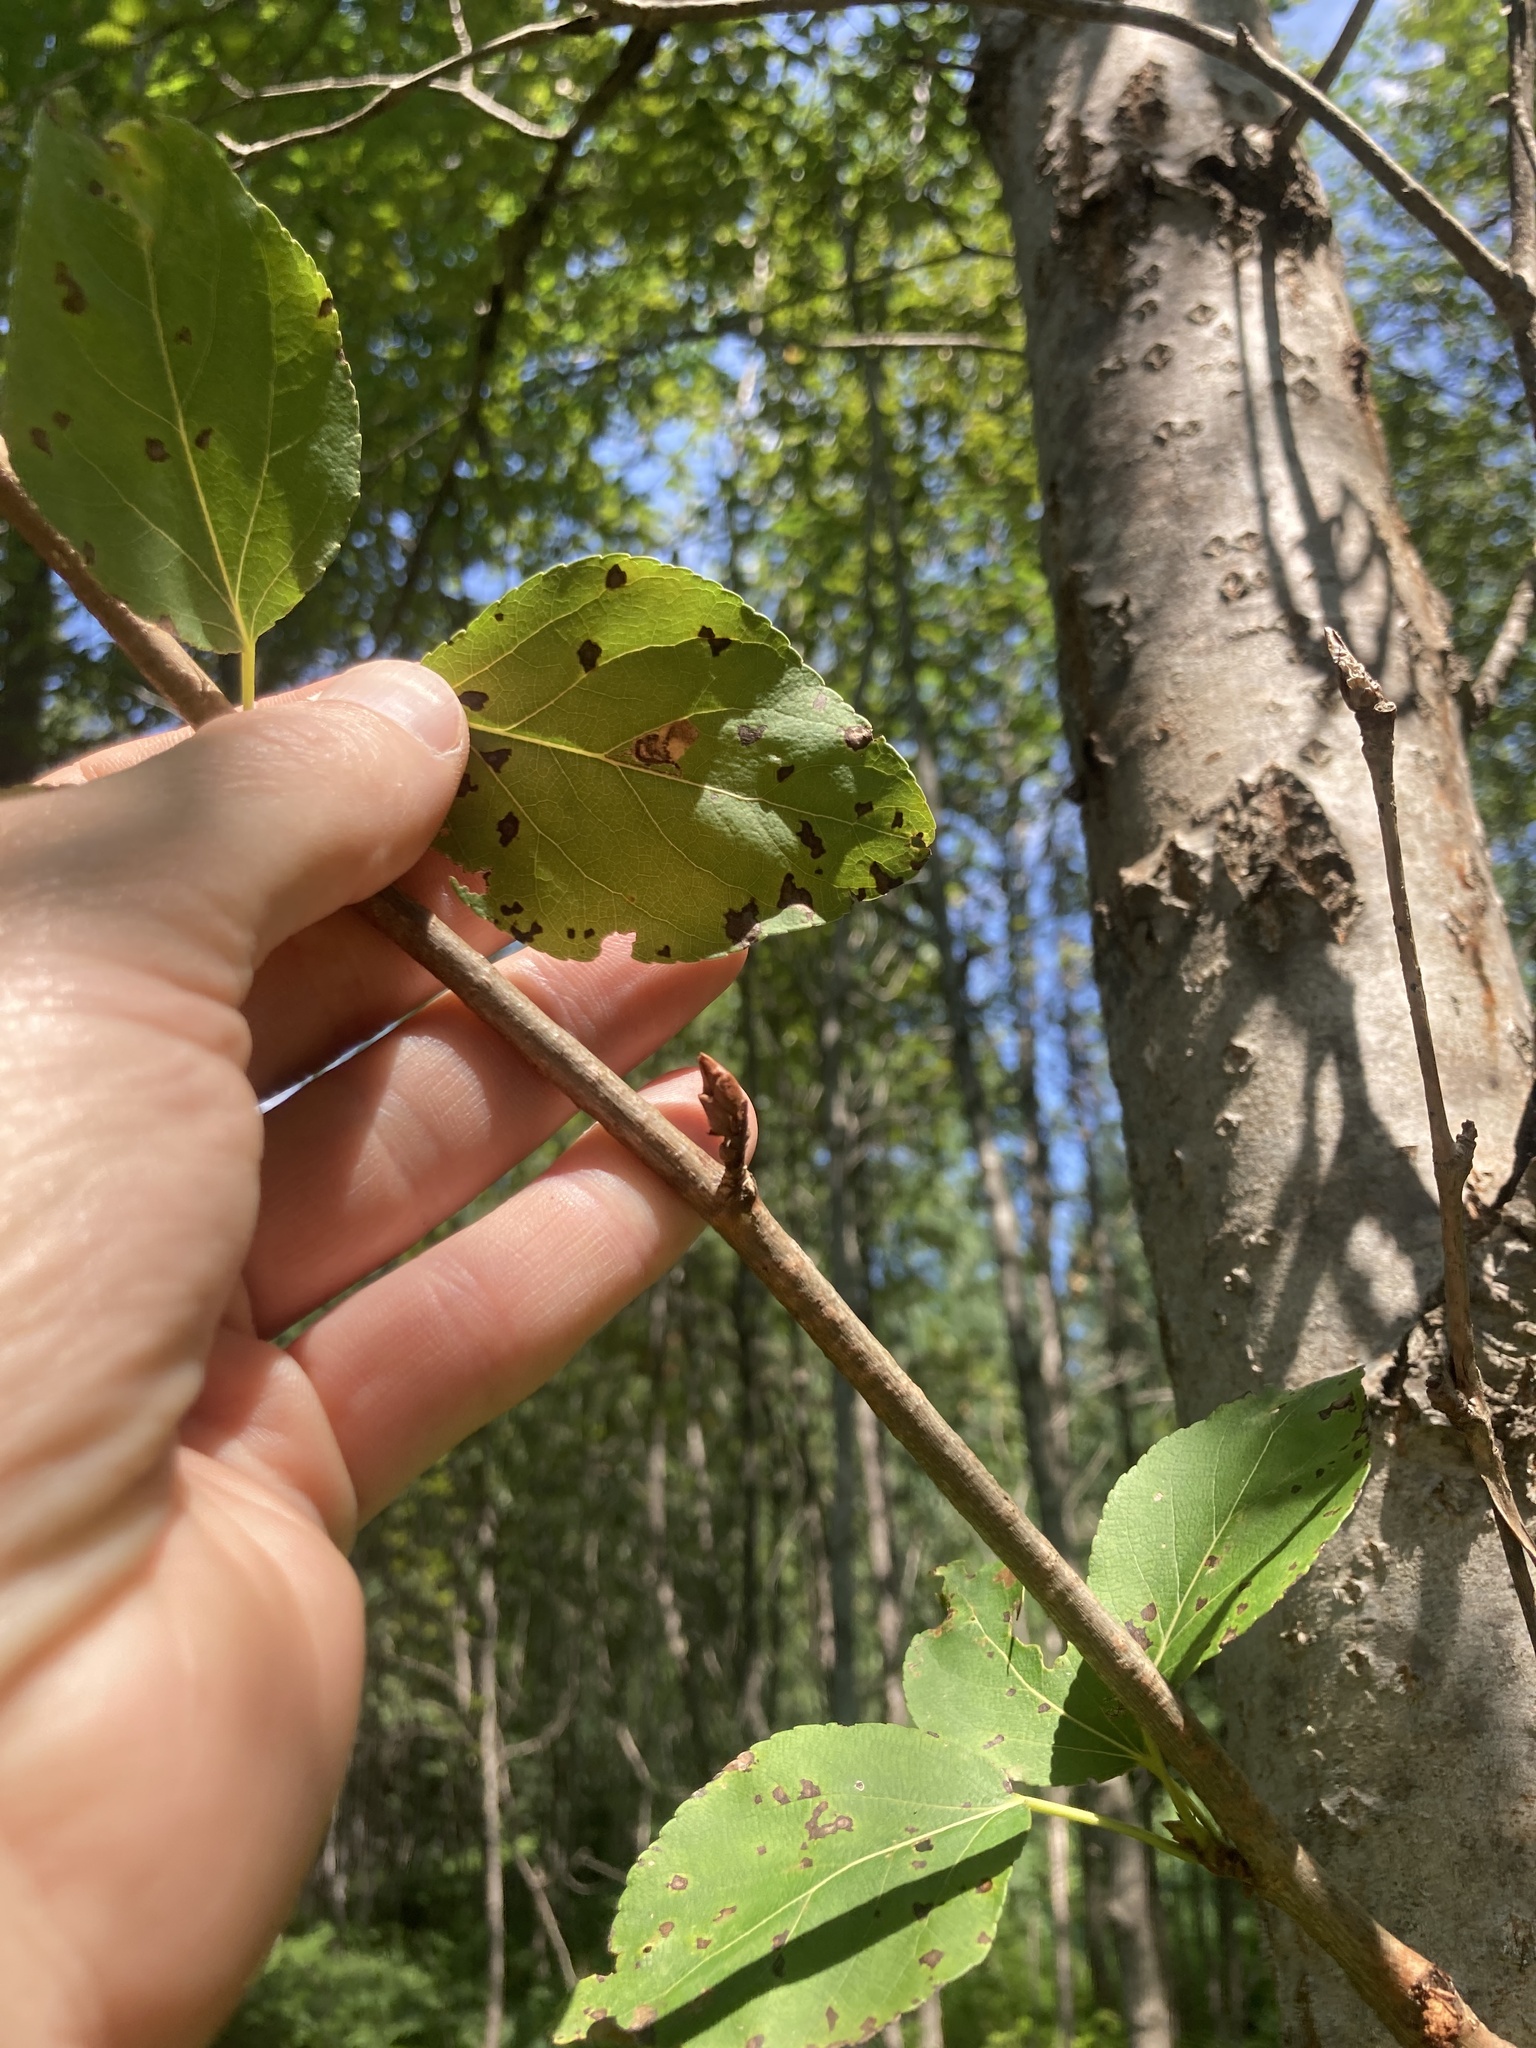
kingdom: Plantae
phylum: Tracheophyta
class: Magnoliopsida
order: Malpighiales
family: Salicaceae
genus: Populus
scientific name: Populus balsamifera
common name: Balsam poplar
